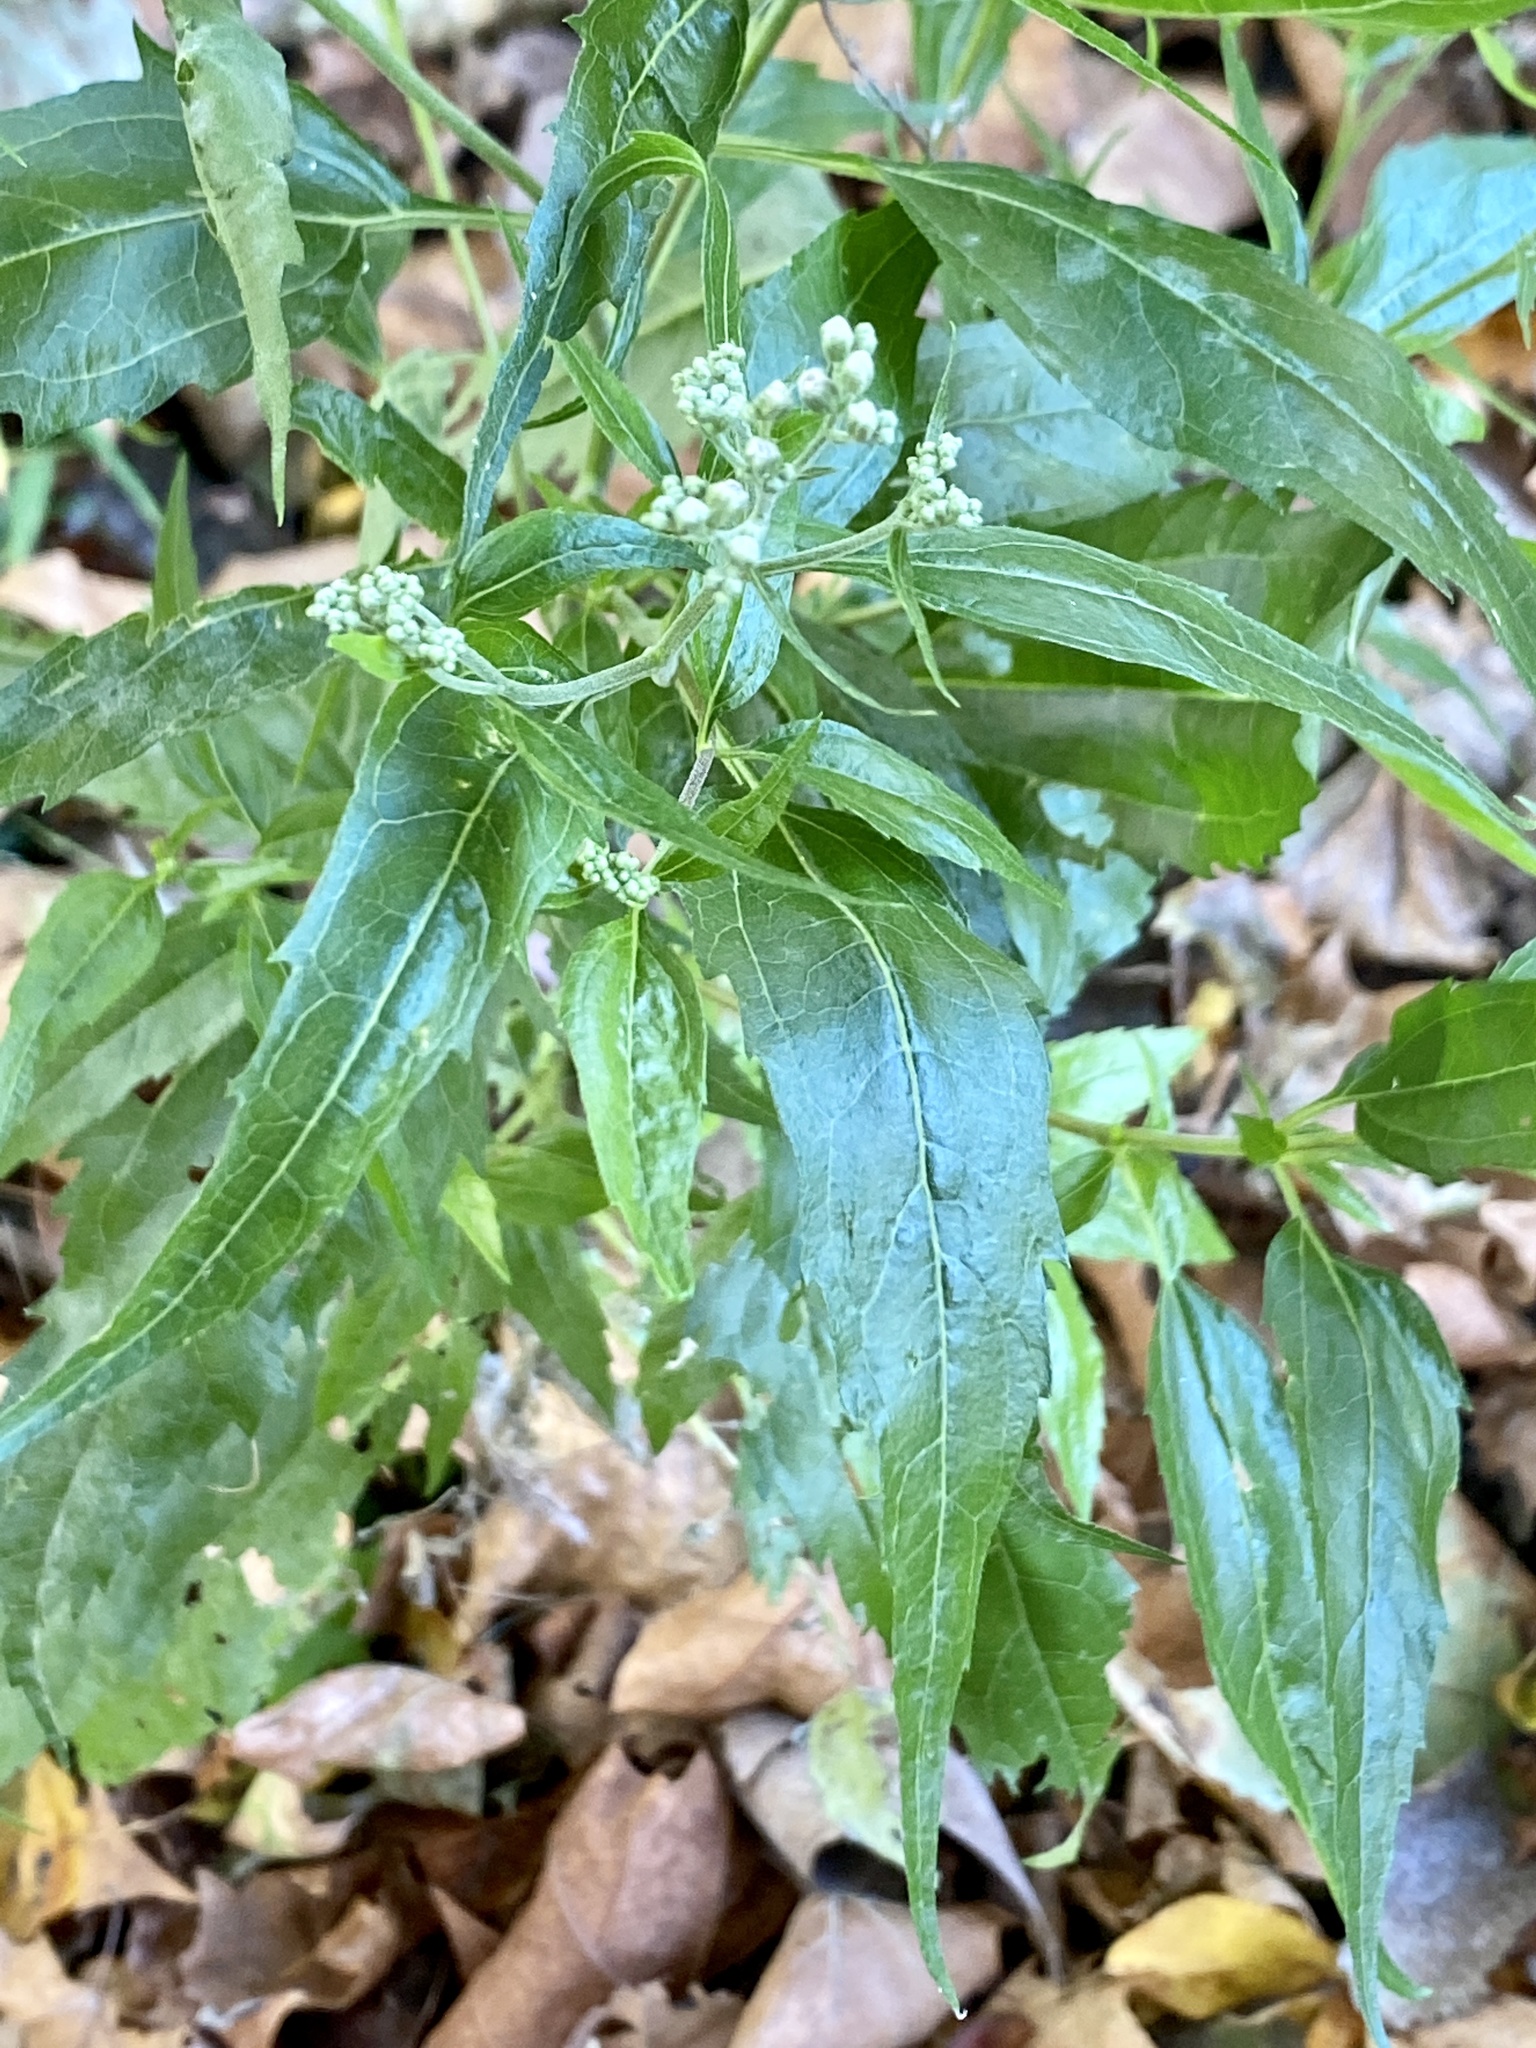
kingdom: Plantae
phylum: Tracheophyta
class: Magnoliopsida
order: Asterales
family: Asteraceae
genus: Eupatorium
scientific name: Eupatorium serotinum
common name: Late boneset
